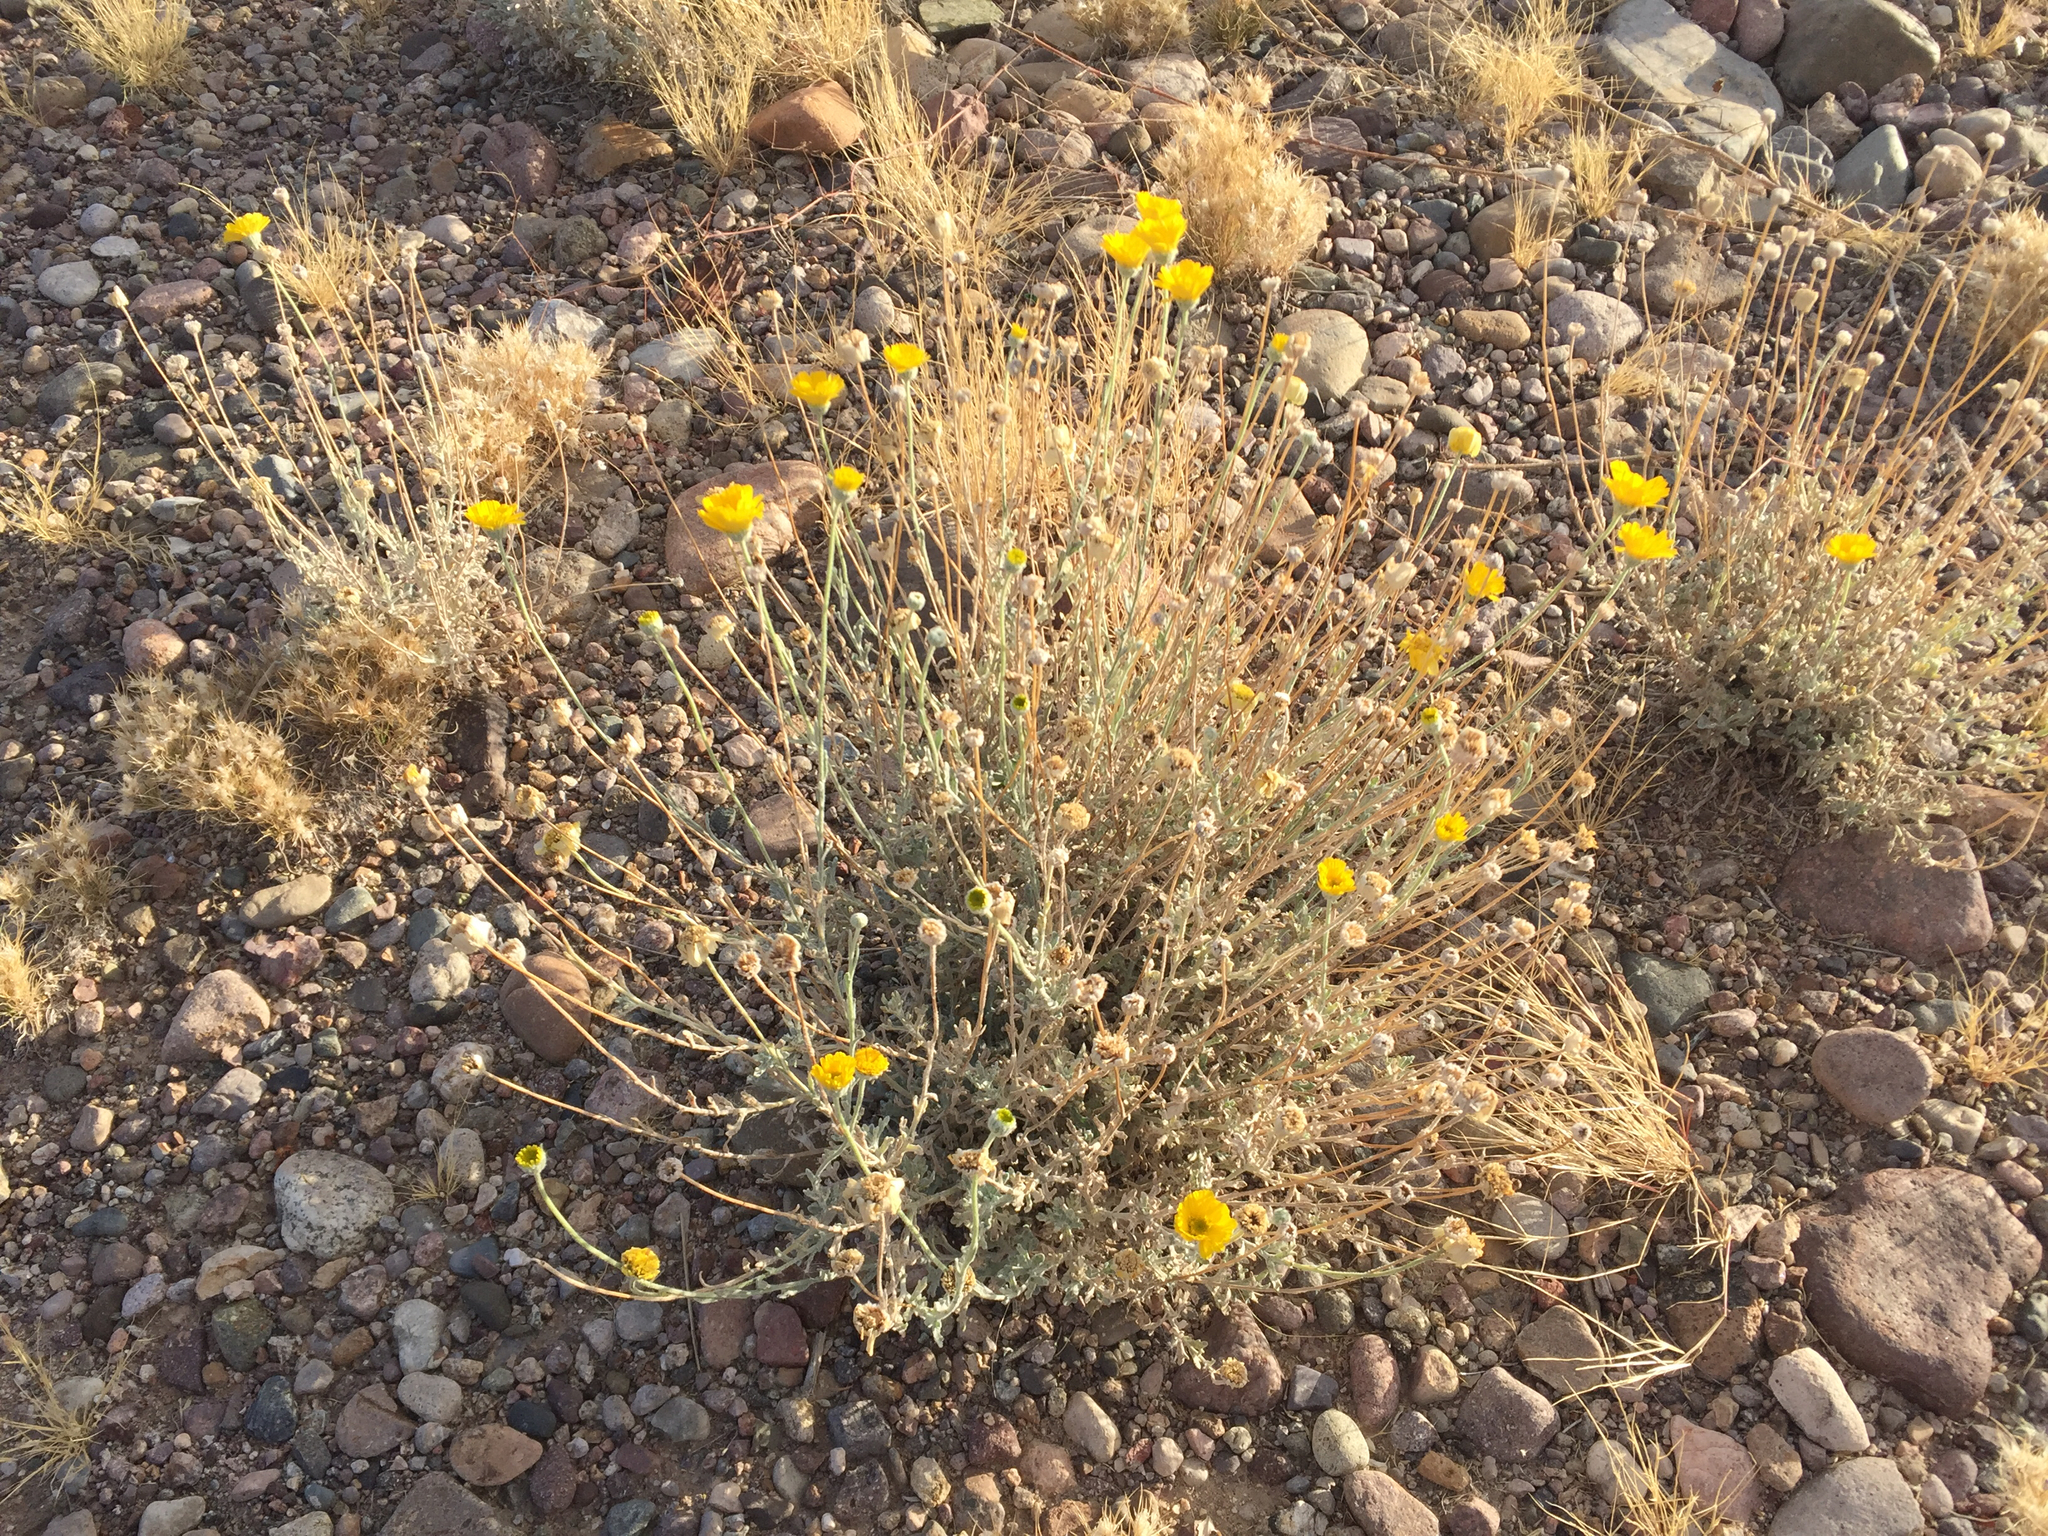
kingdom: Plantae
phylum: Tracheophyta
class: Magnoliopsida
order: Asterales
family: Asteraceae
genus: Baileya
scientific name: Baileya multiradiata
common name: Desert-marigold
